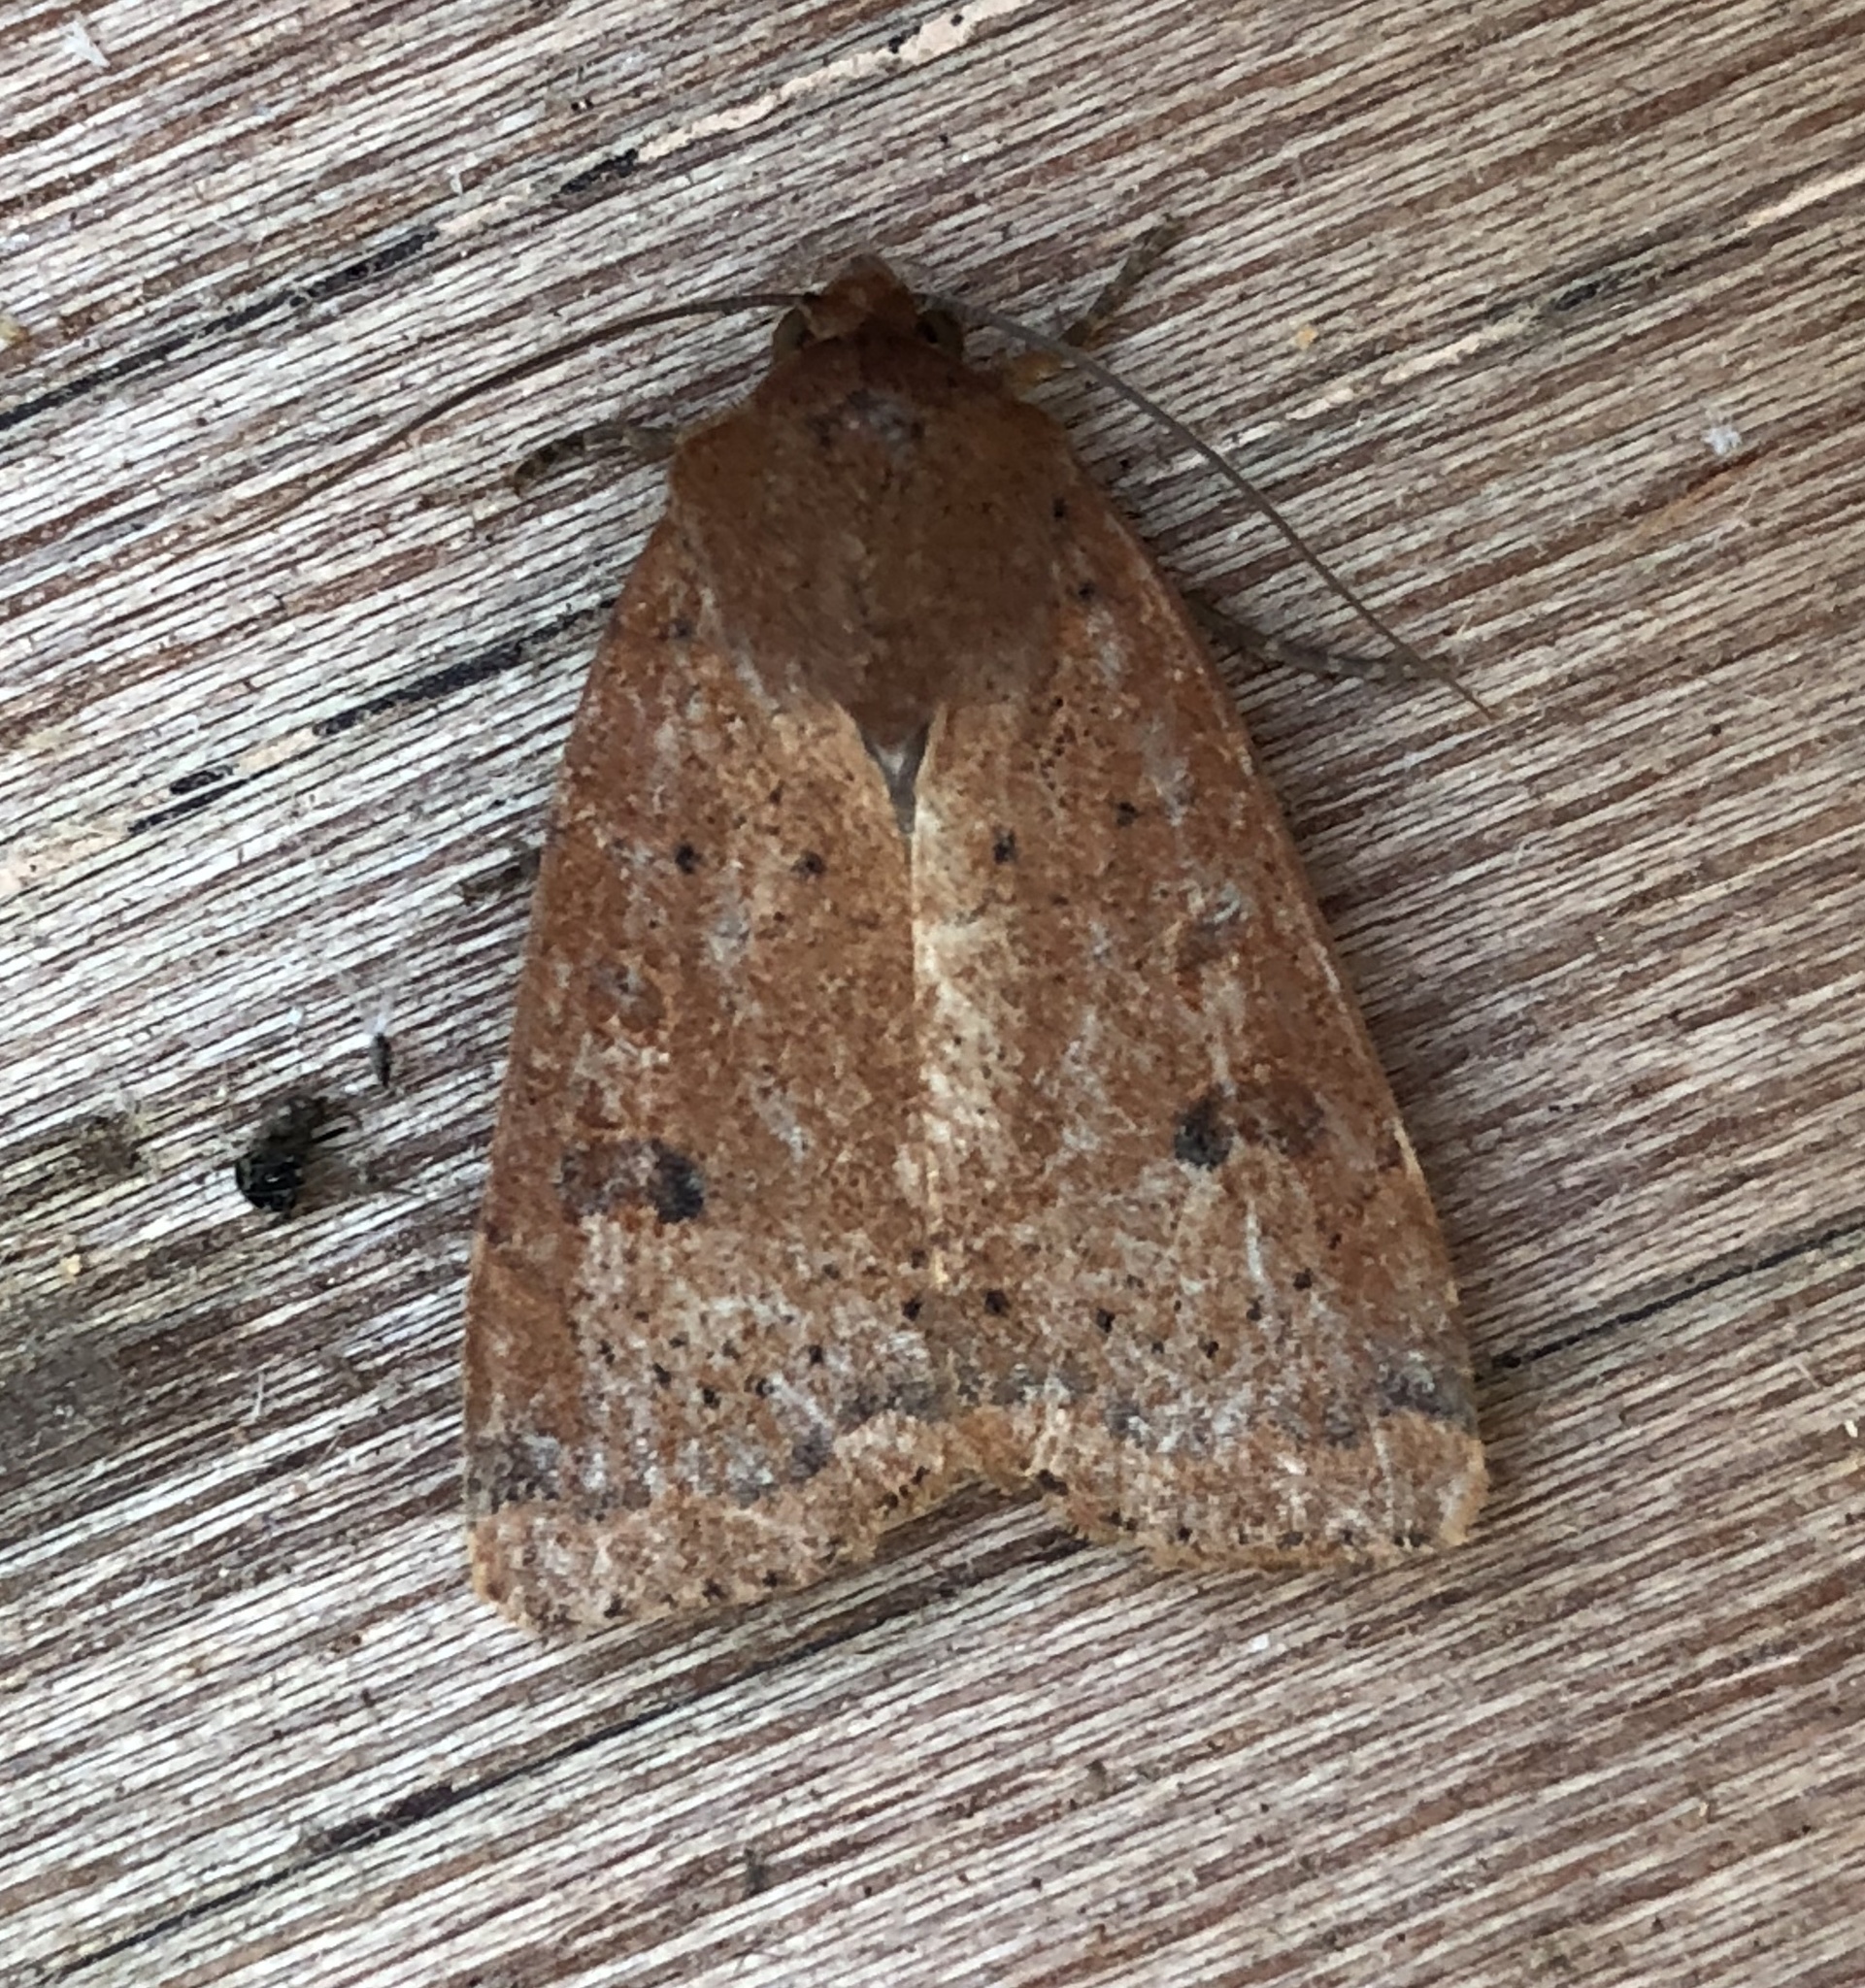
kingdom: Animalia
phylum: Arthropoda
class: Insecta
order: Lepidoptera
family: Noctuidae
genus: Noctua
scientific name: Noctua comes
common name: Lesser yellow underwing
